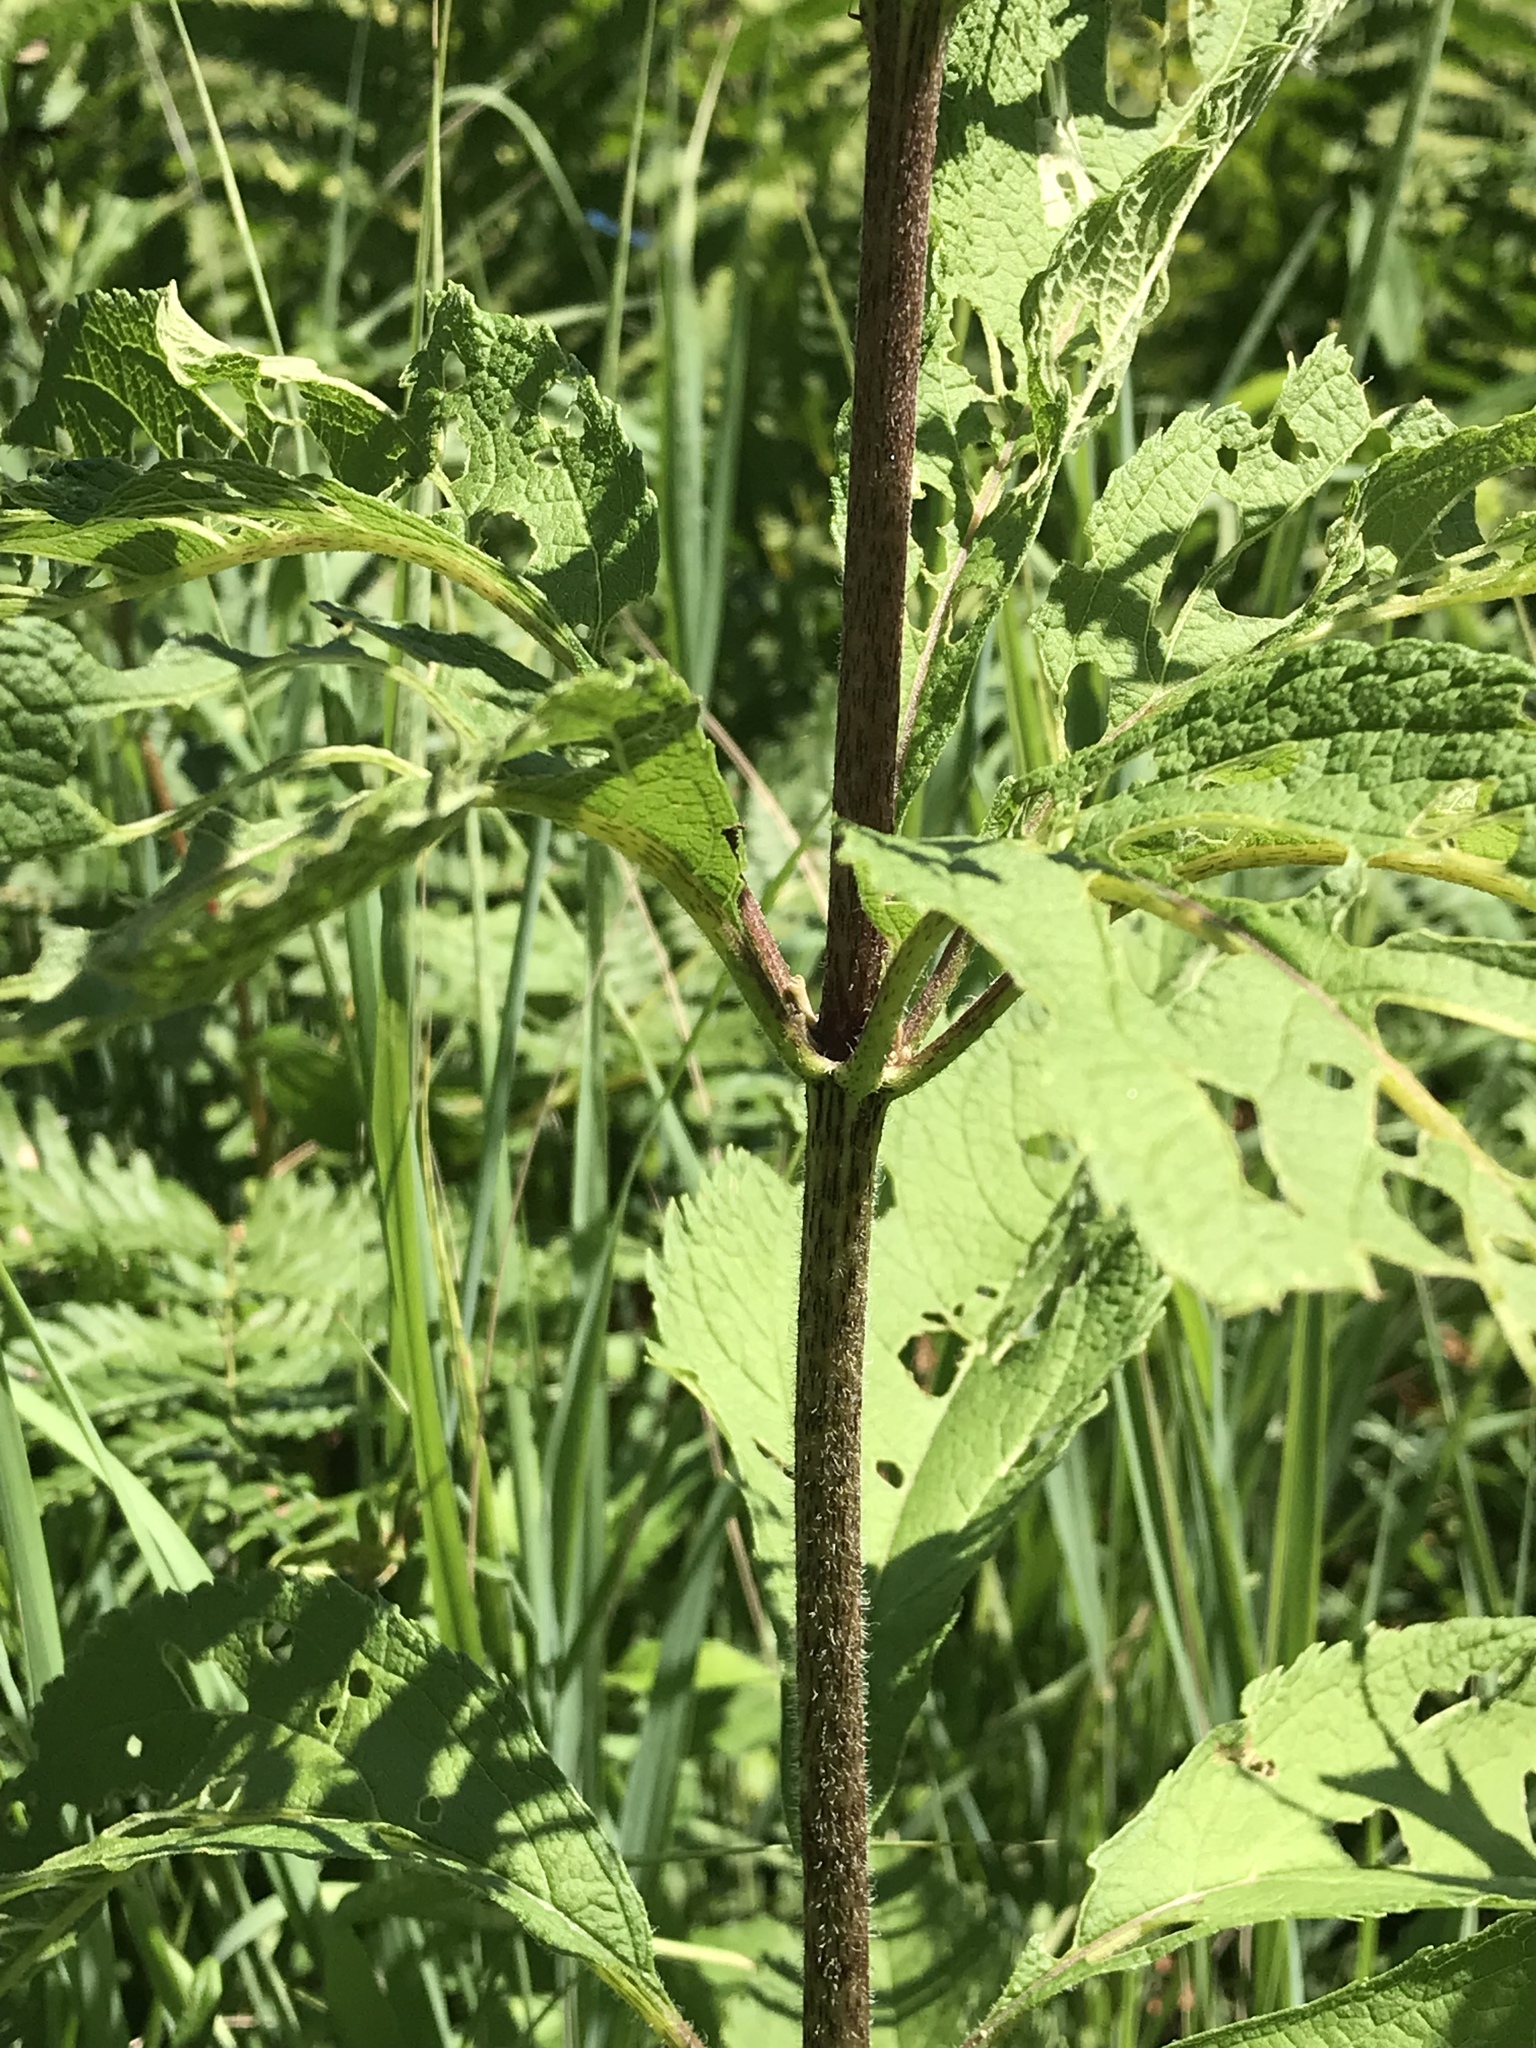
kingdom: Plantae
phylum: Tracheophyta
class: Magnoliopsida
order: Asterales
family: Asteraceae
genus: Eutrochium
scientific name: Eutrochium maculatum
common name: Spotted joe pye weed
